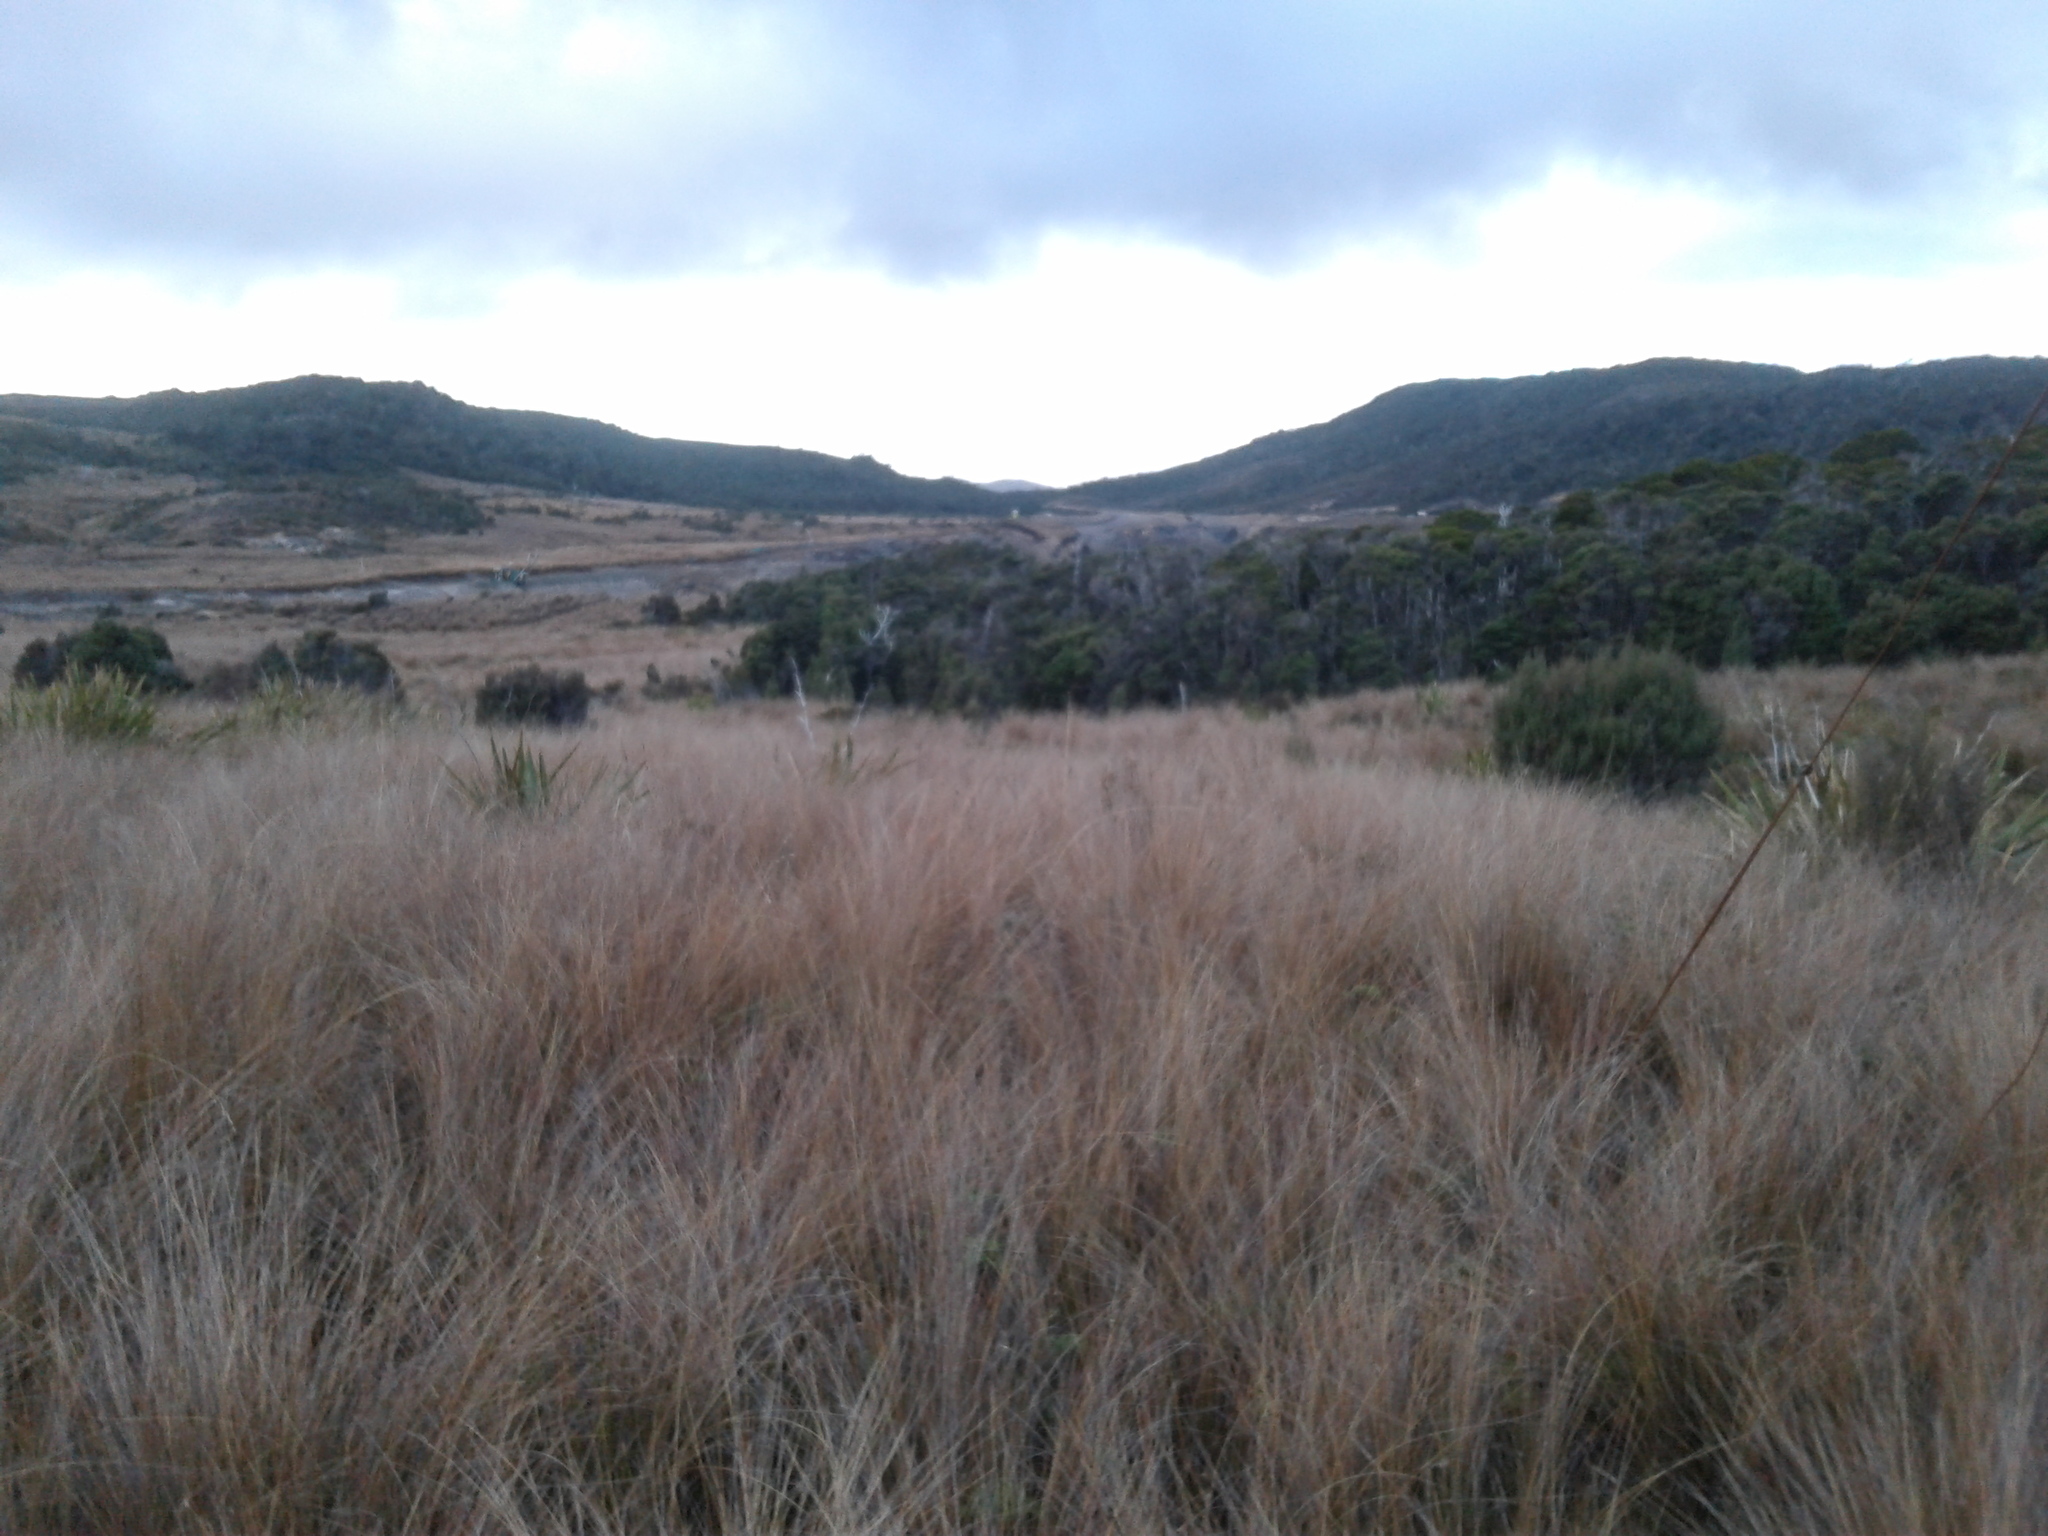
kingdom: Plantae
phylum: Tracheophyta
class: Liliopsida
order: Poales
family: Poaceae
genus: Chionochloa
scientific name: Chionochloa juncea
